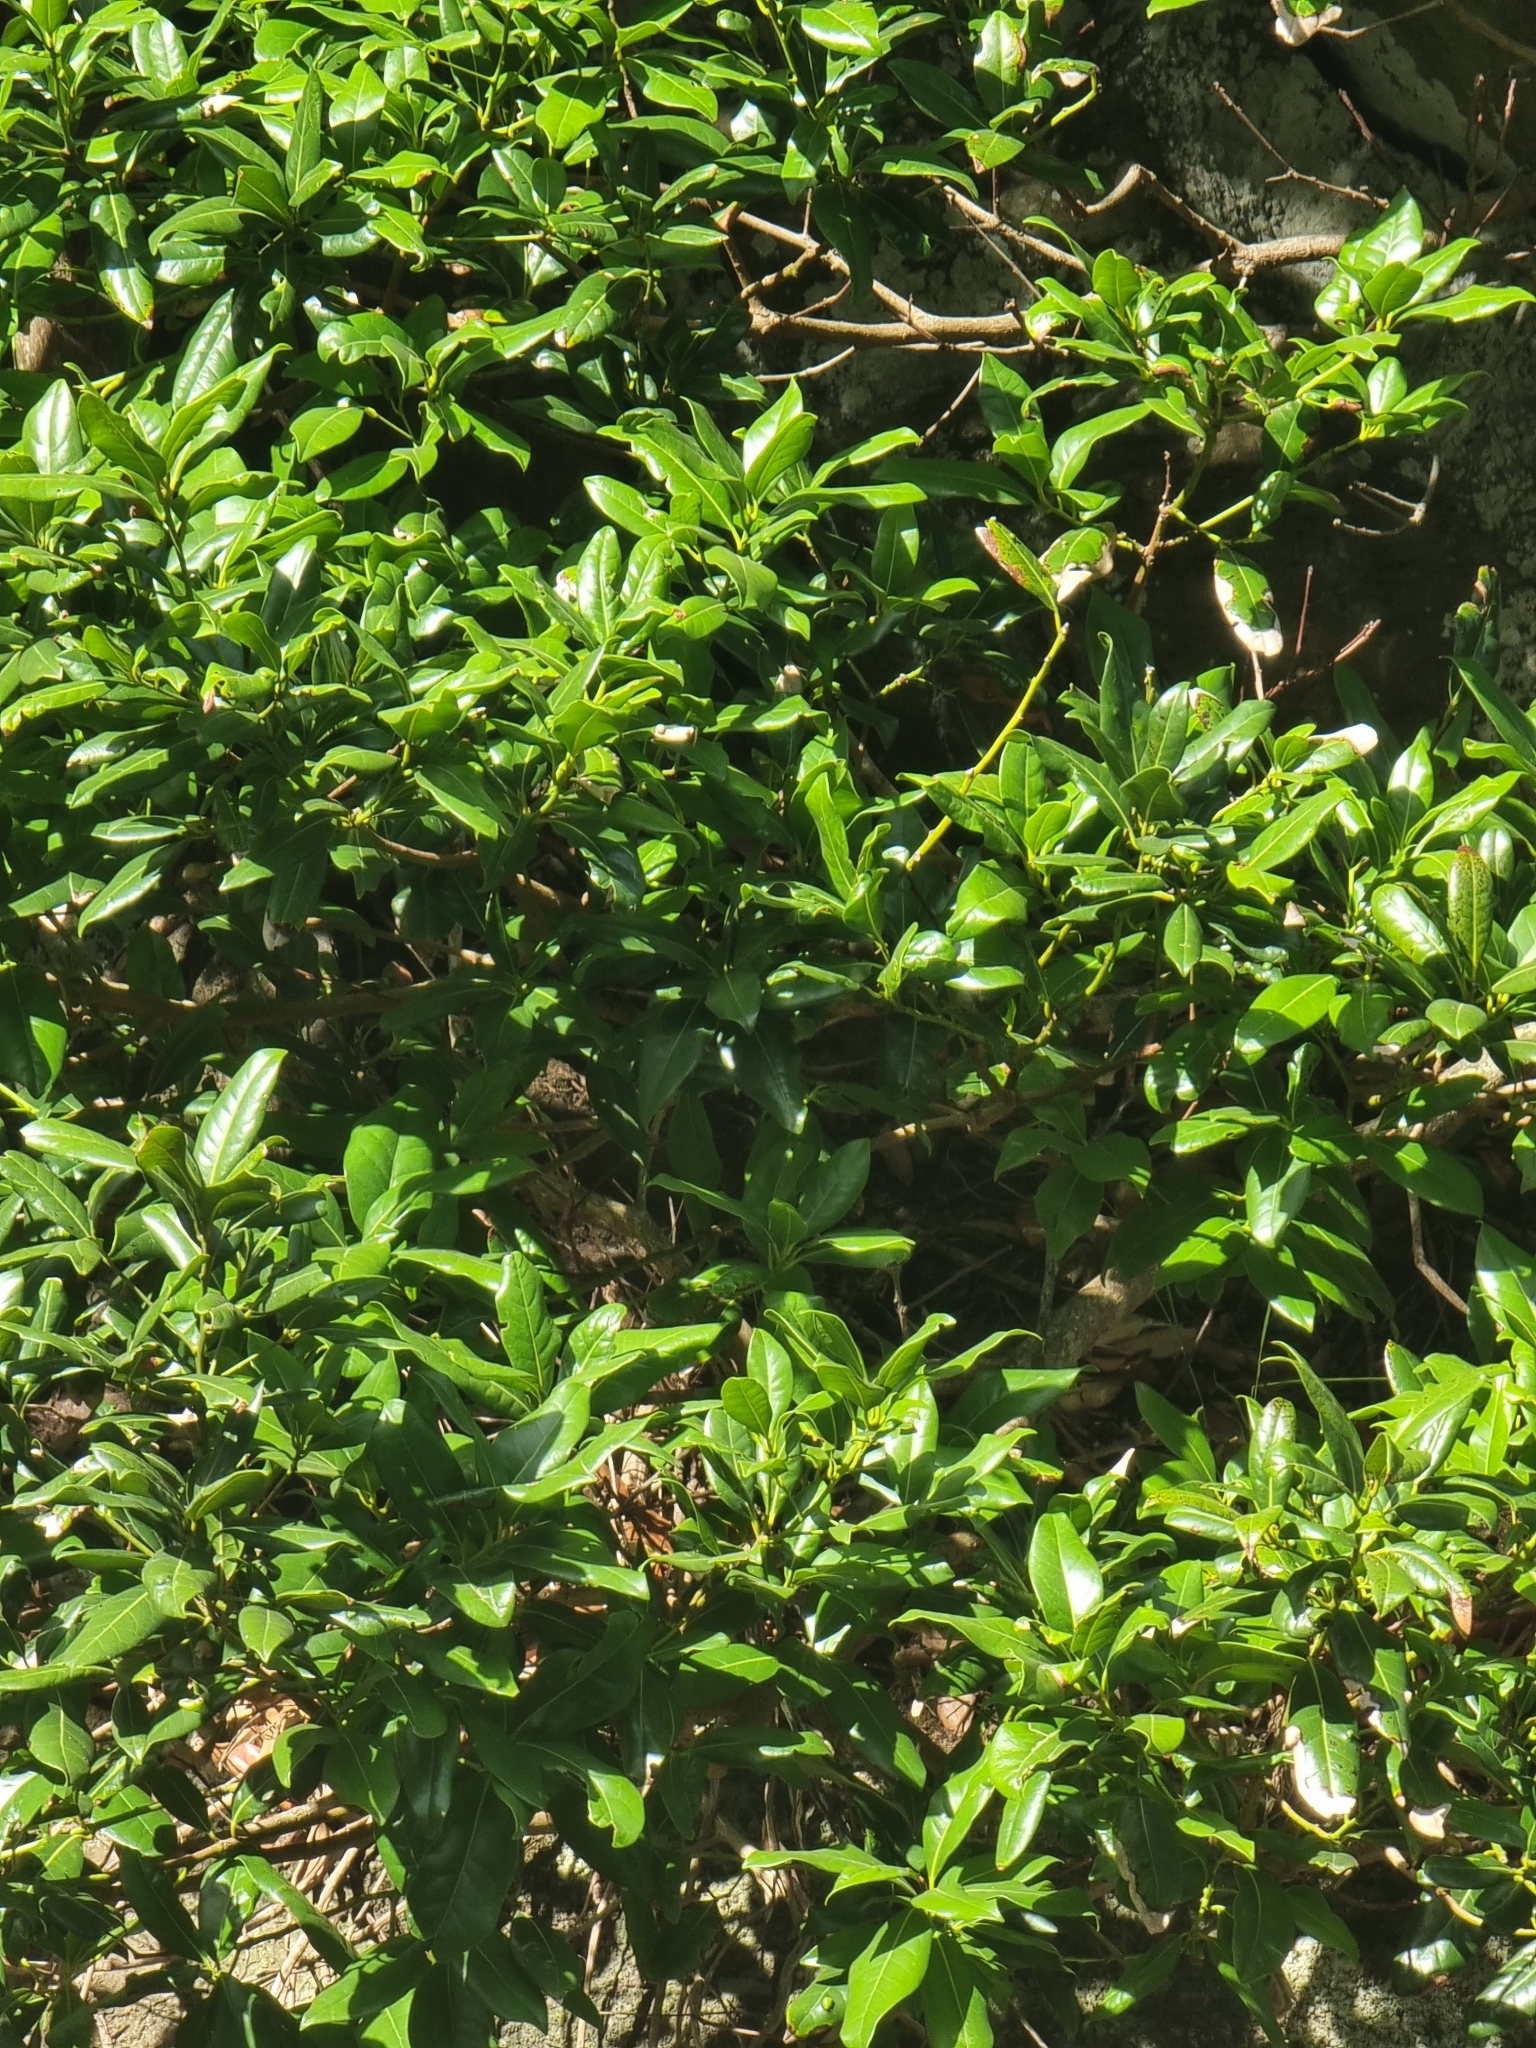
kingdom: Plantae
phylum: Tracheophyta
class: Magnoliopsida
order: Laurales
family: Lauraceae
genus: Apollonias
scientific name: Apollonias barbujana
